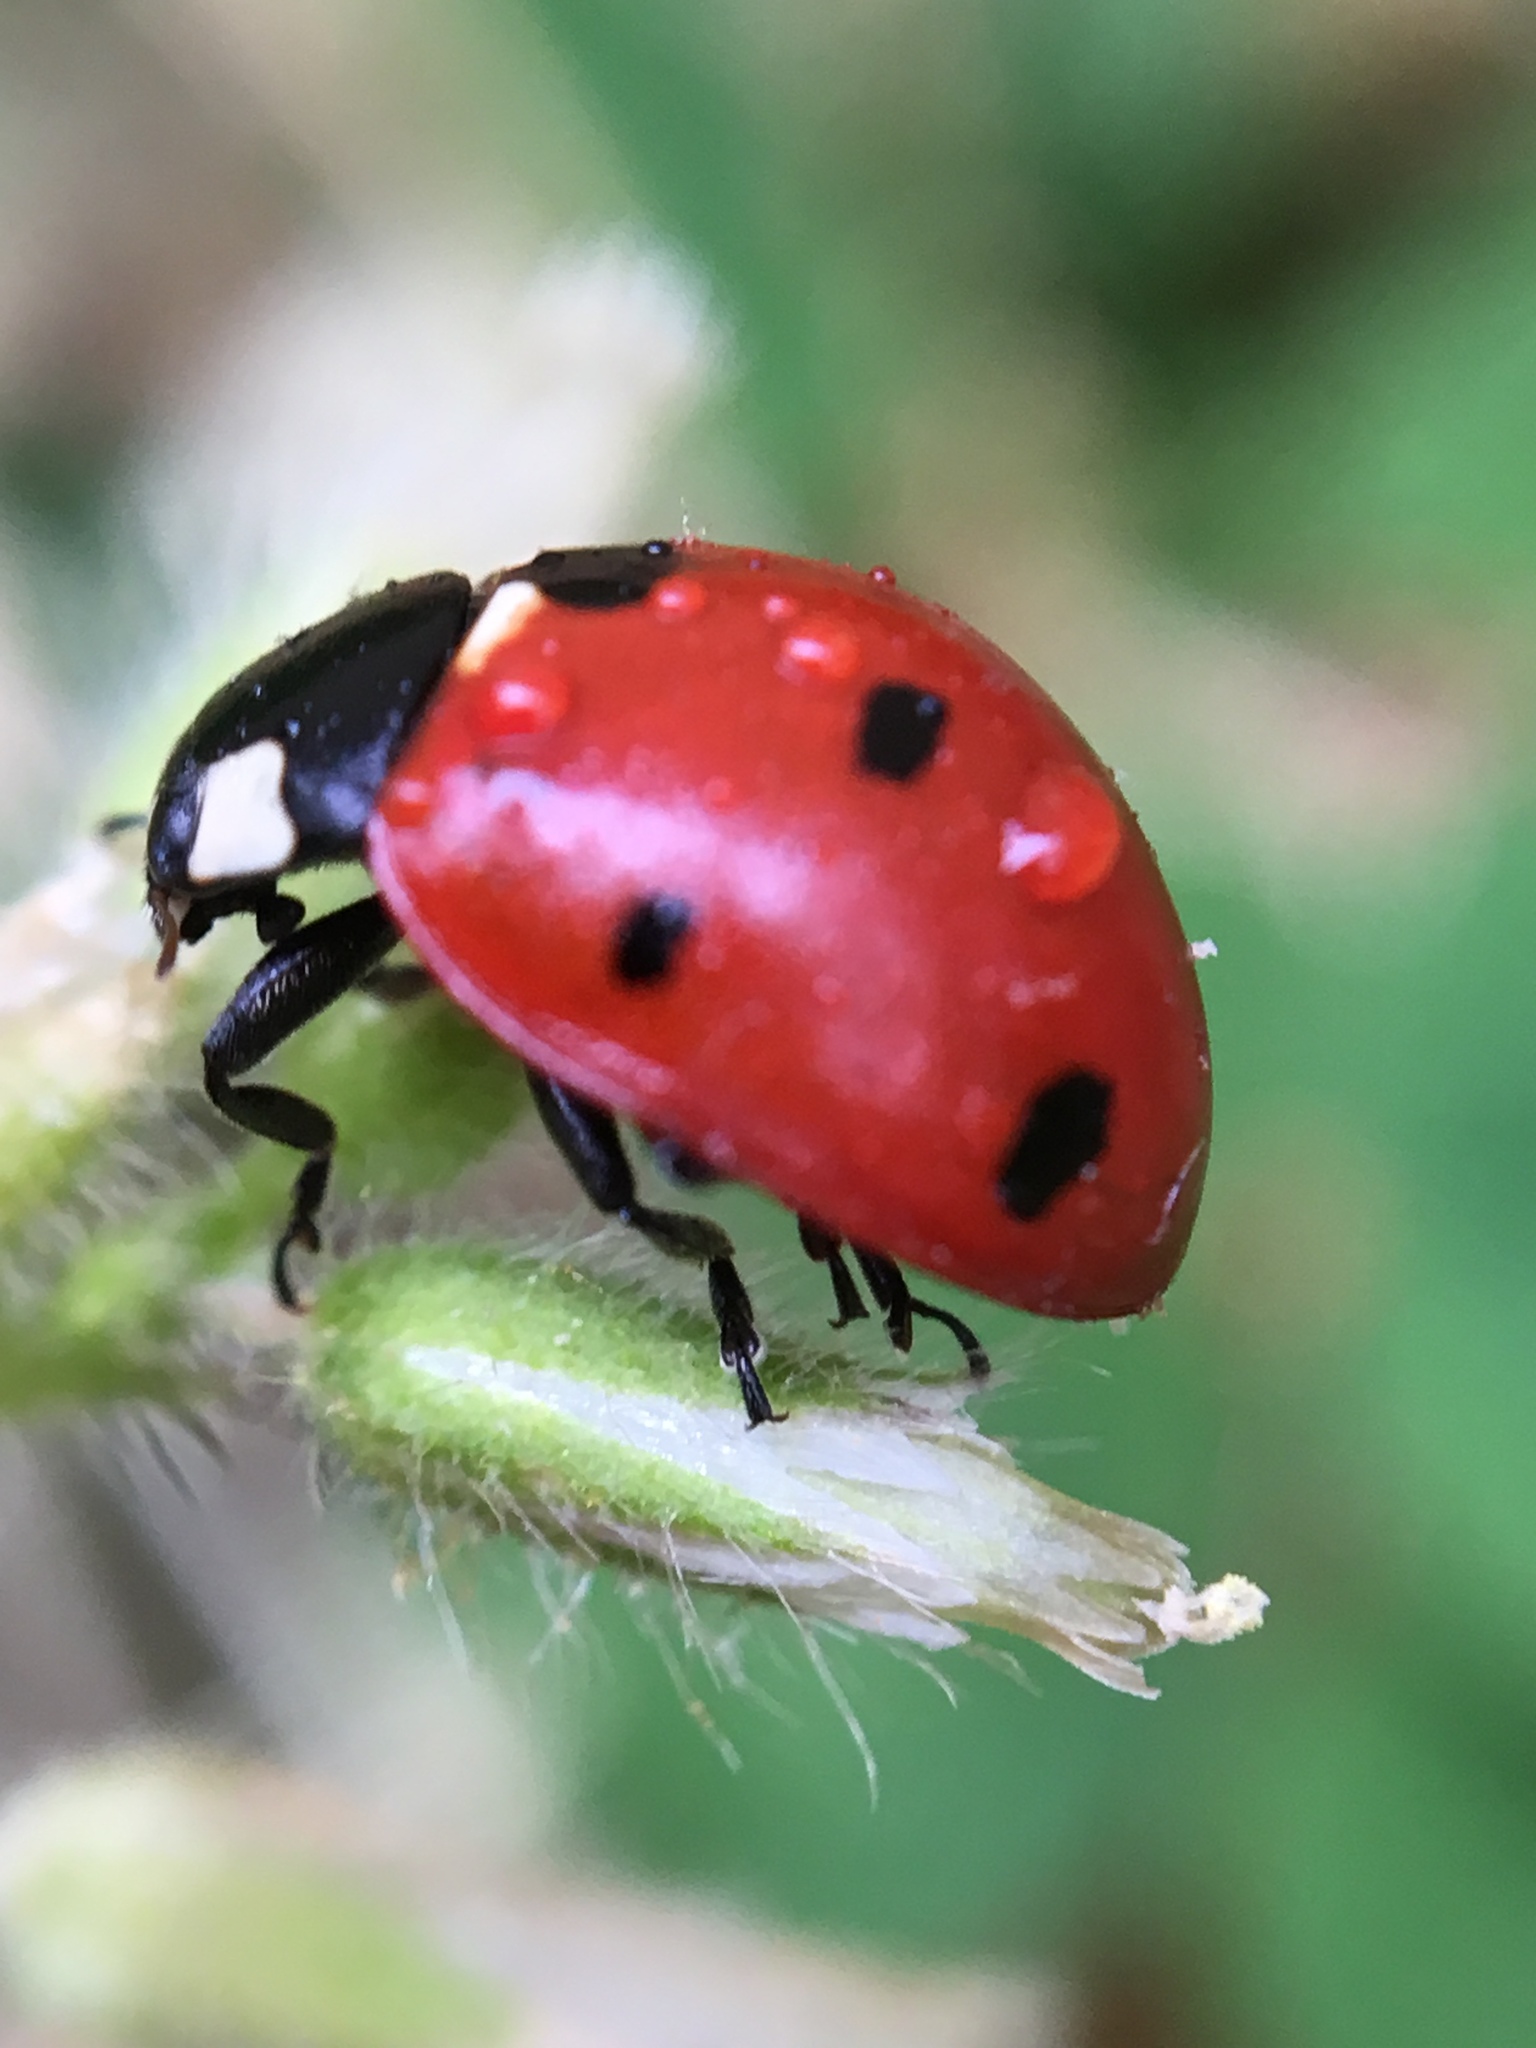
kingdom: Animalia
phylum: Arthropoda
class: Insecta
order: Coleoptera
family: Coccinellidae
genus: Coccinella
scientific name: Coccinella septempunctata
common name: Sevenspotted lady beetle
